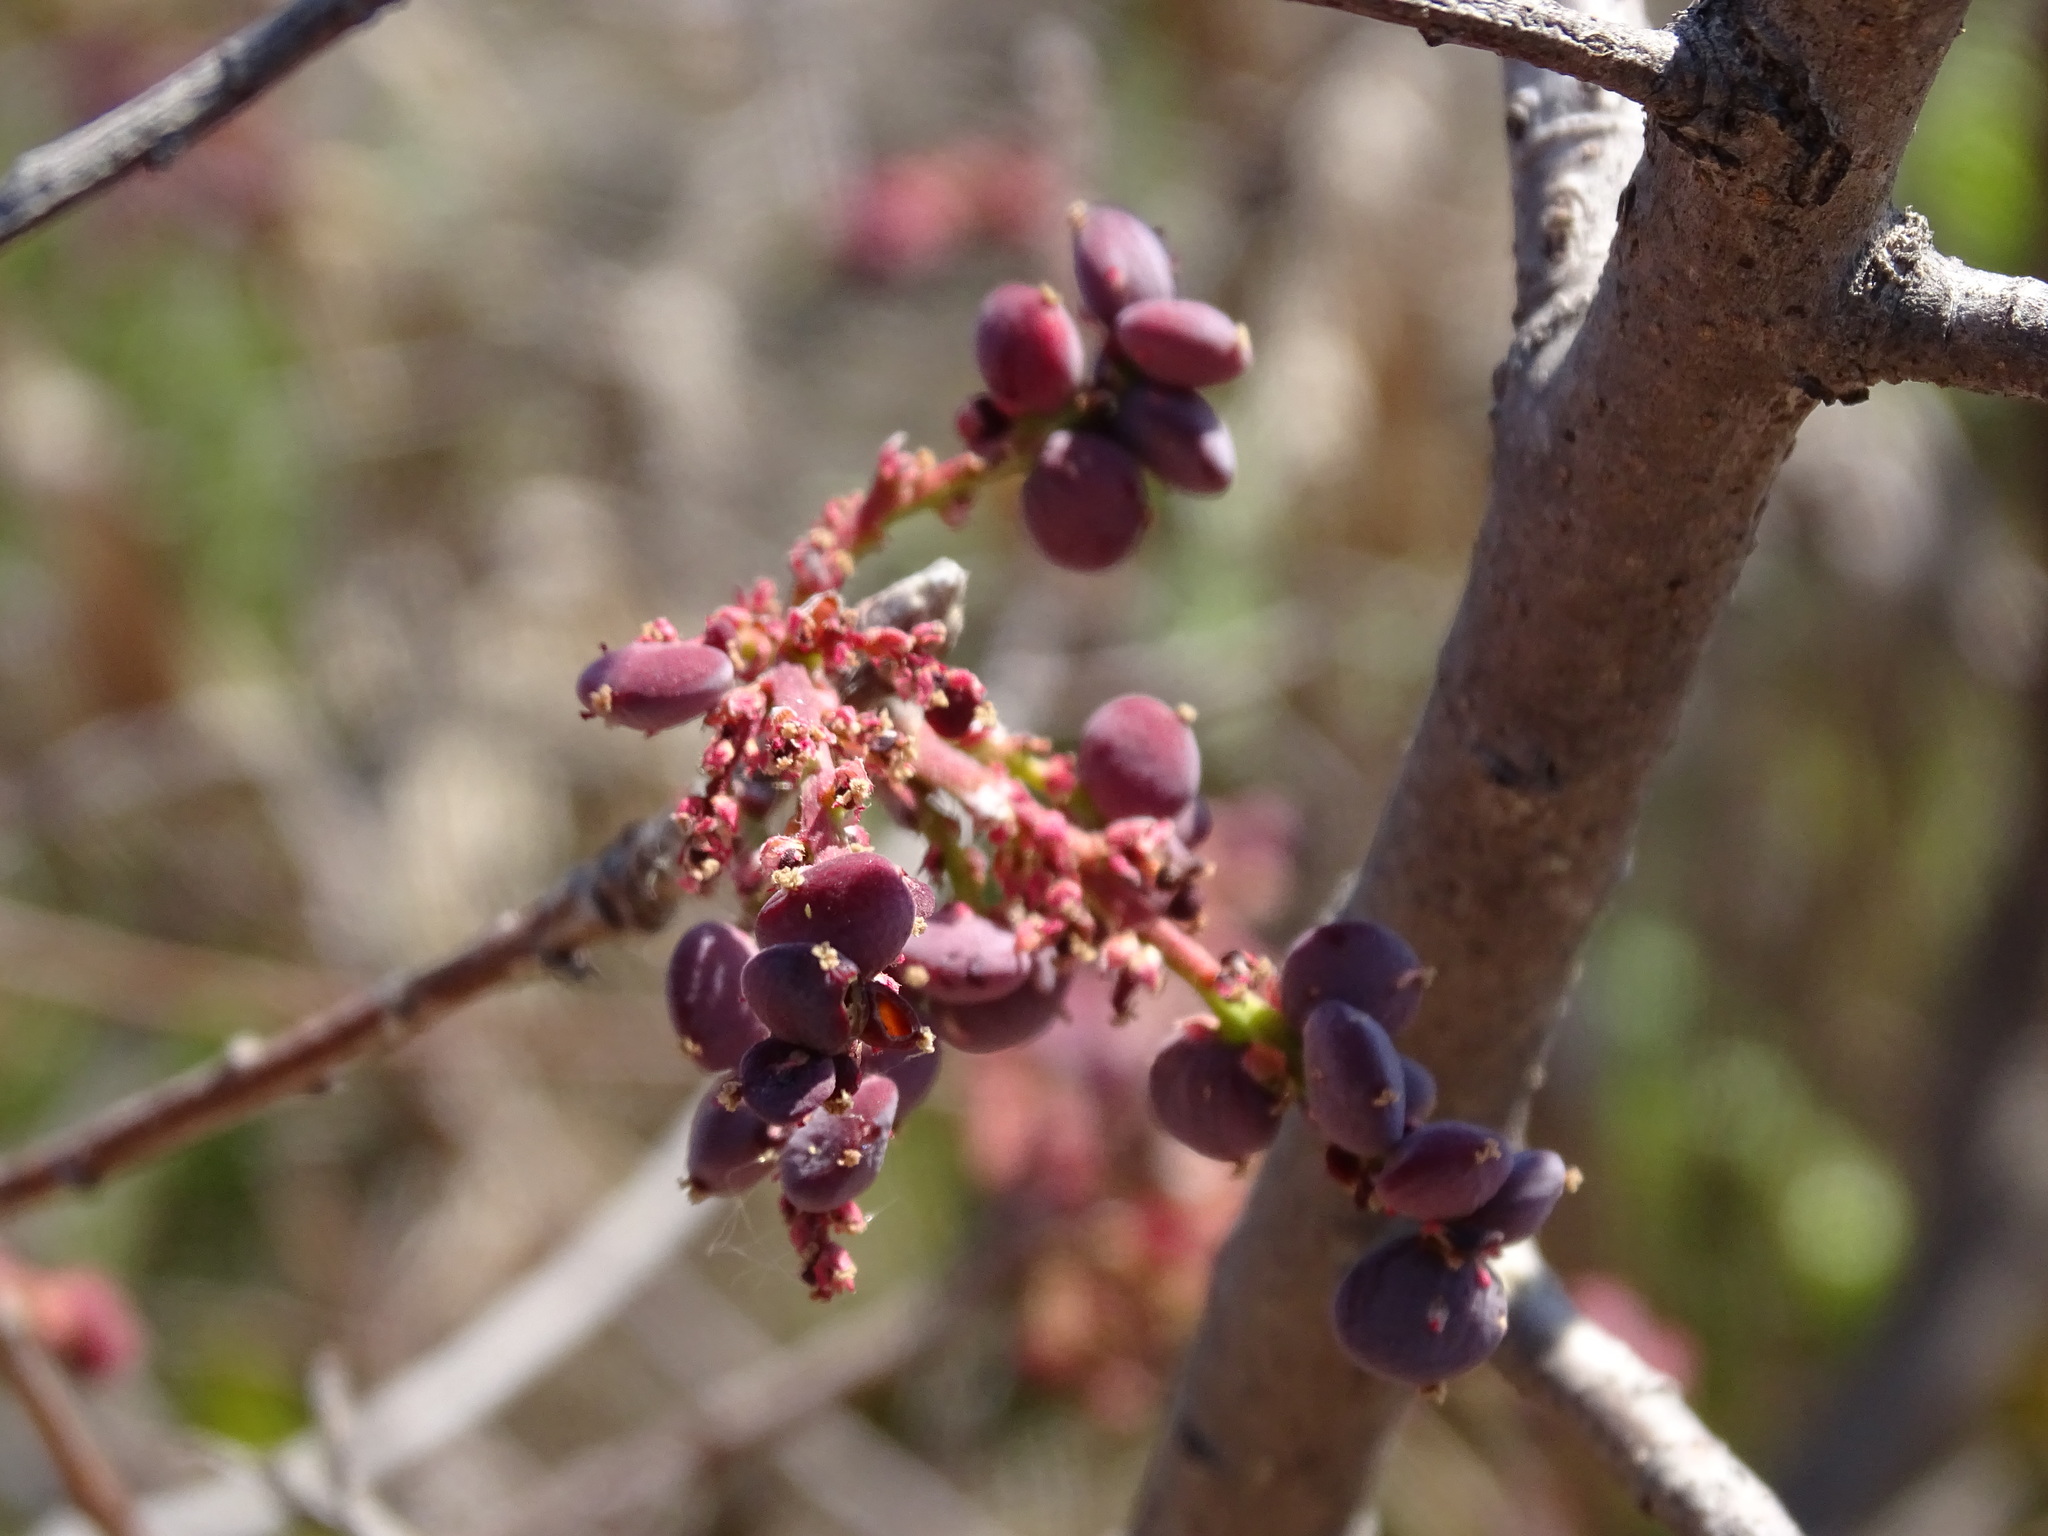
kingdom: Plantae
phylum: Tracheophyta
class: Magnoliopsida
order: Sapindales
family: Anacardiaceae
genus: Pistacia
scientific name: Pistacia mexicana
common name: Mexican pistachio
